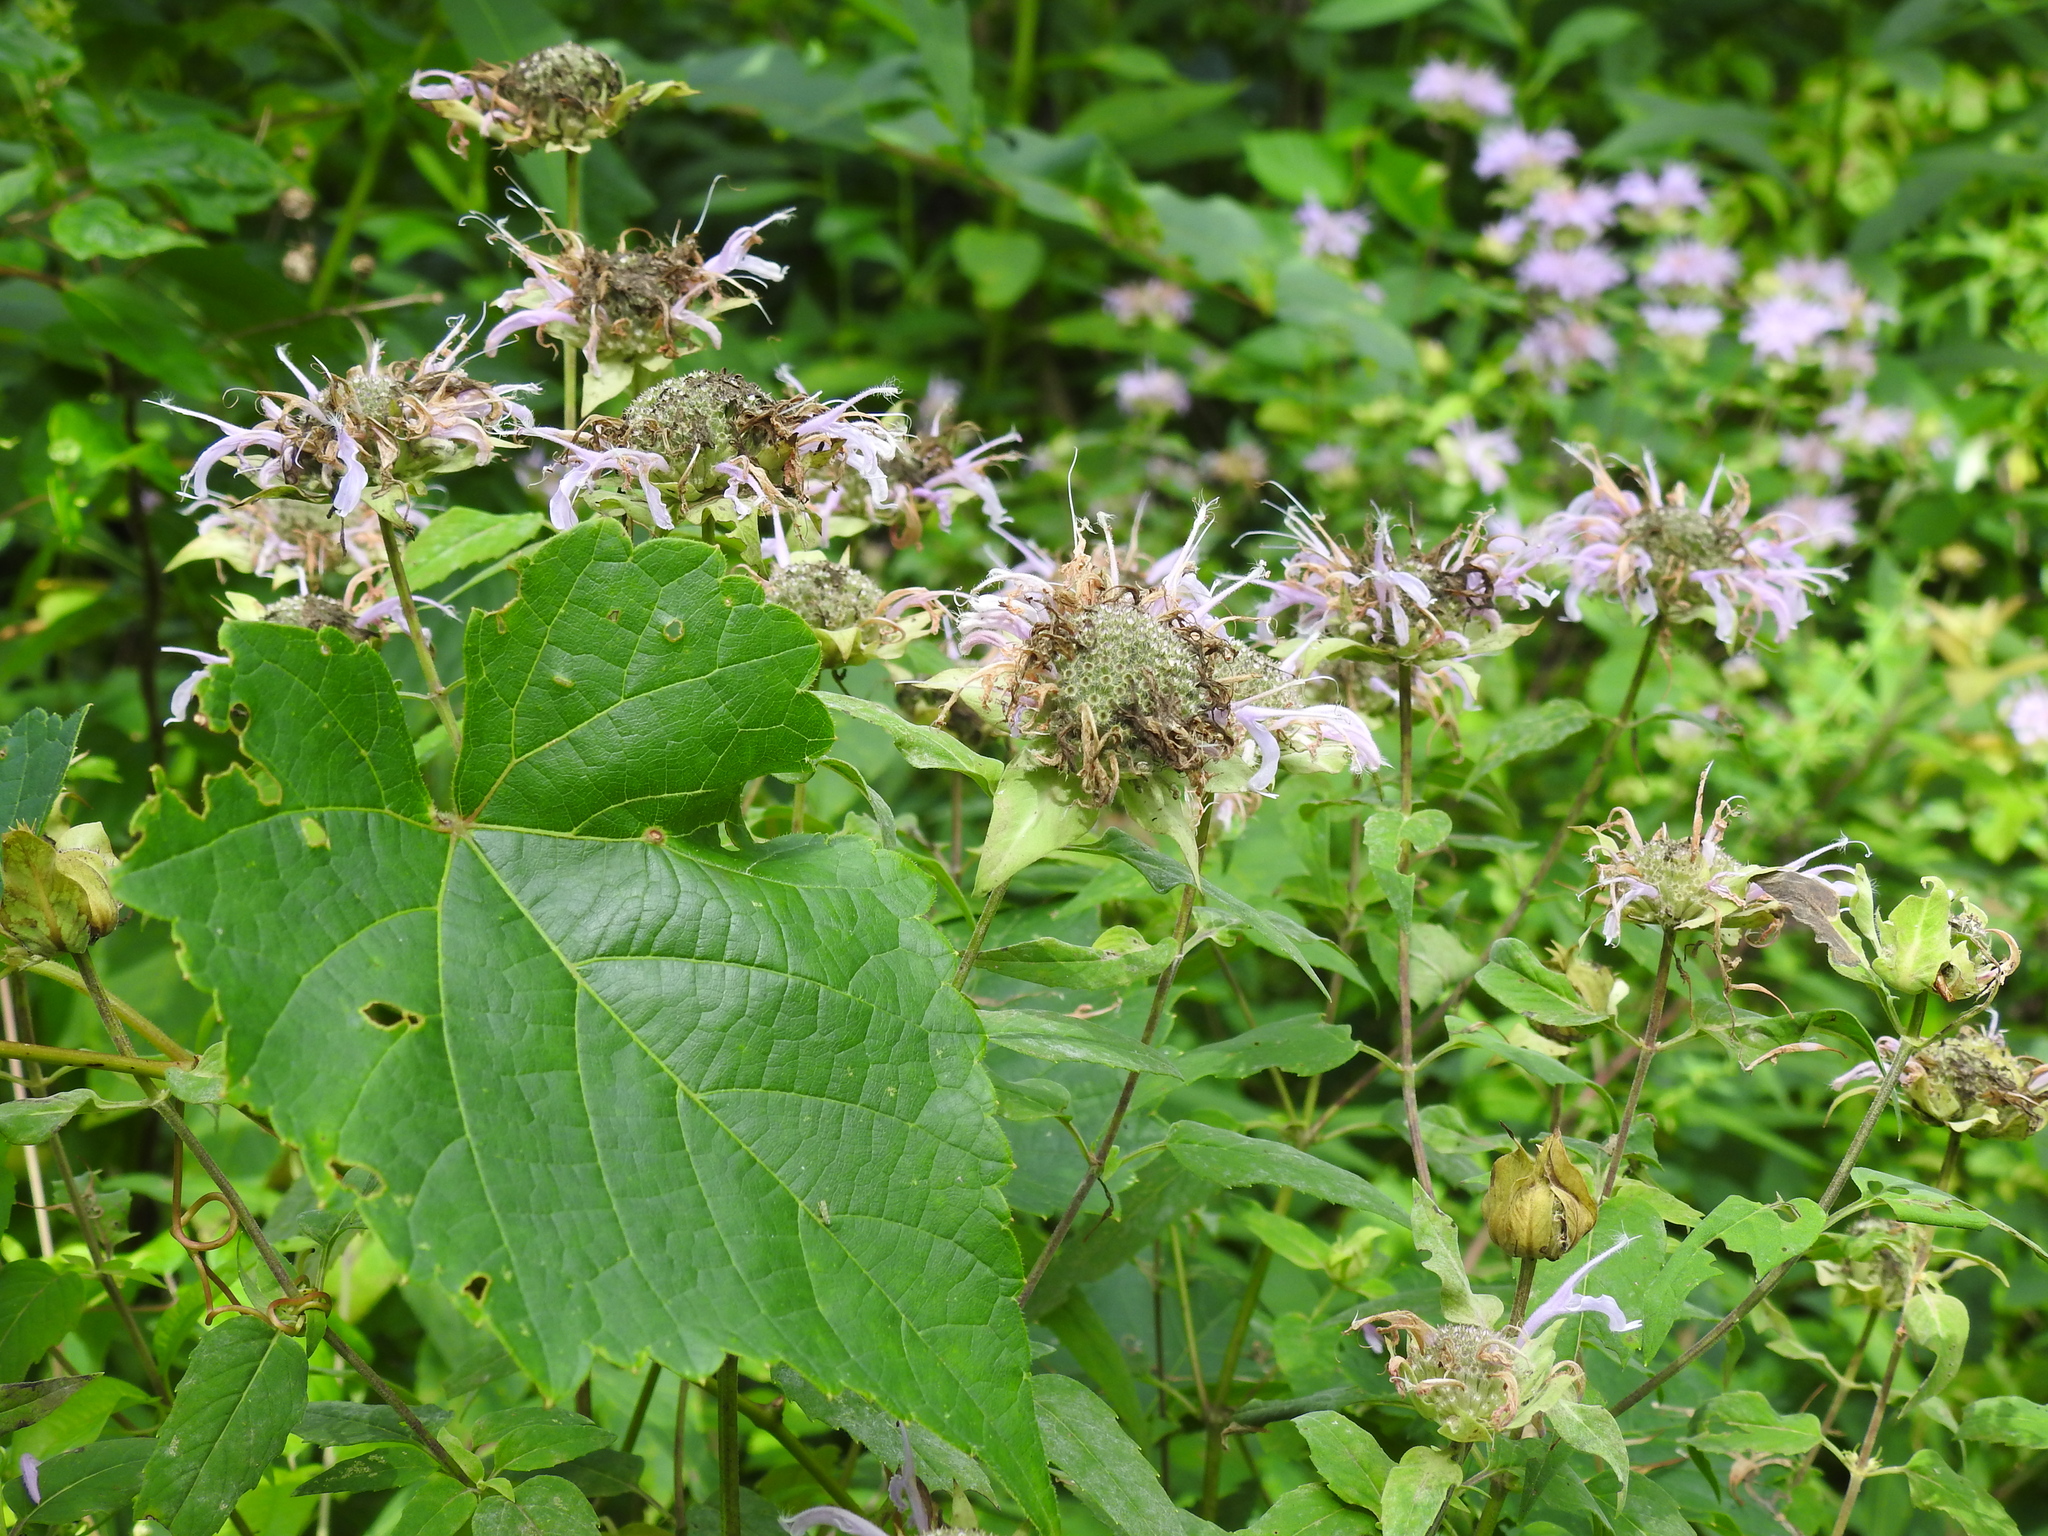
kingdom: Plantae
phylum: Tracheophyta
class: Magnoliopsida
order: Lamiales
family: Lamiaceae
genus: Monarda
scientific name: Monarda fistulosa
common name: Purple beebalm
